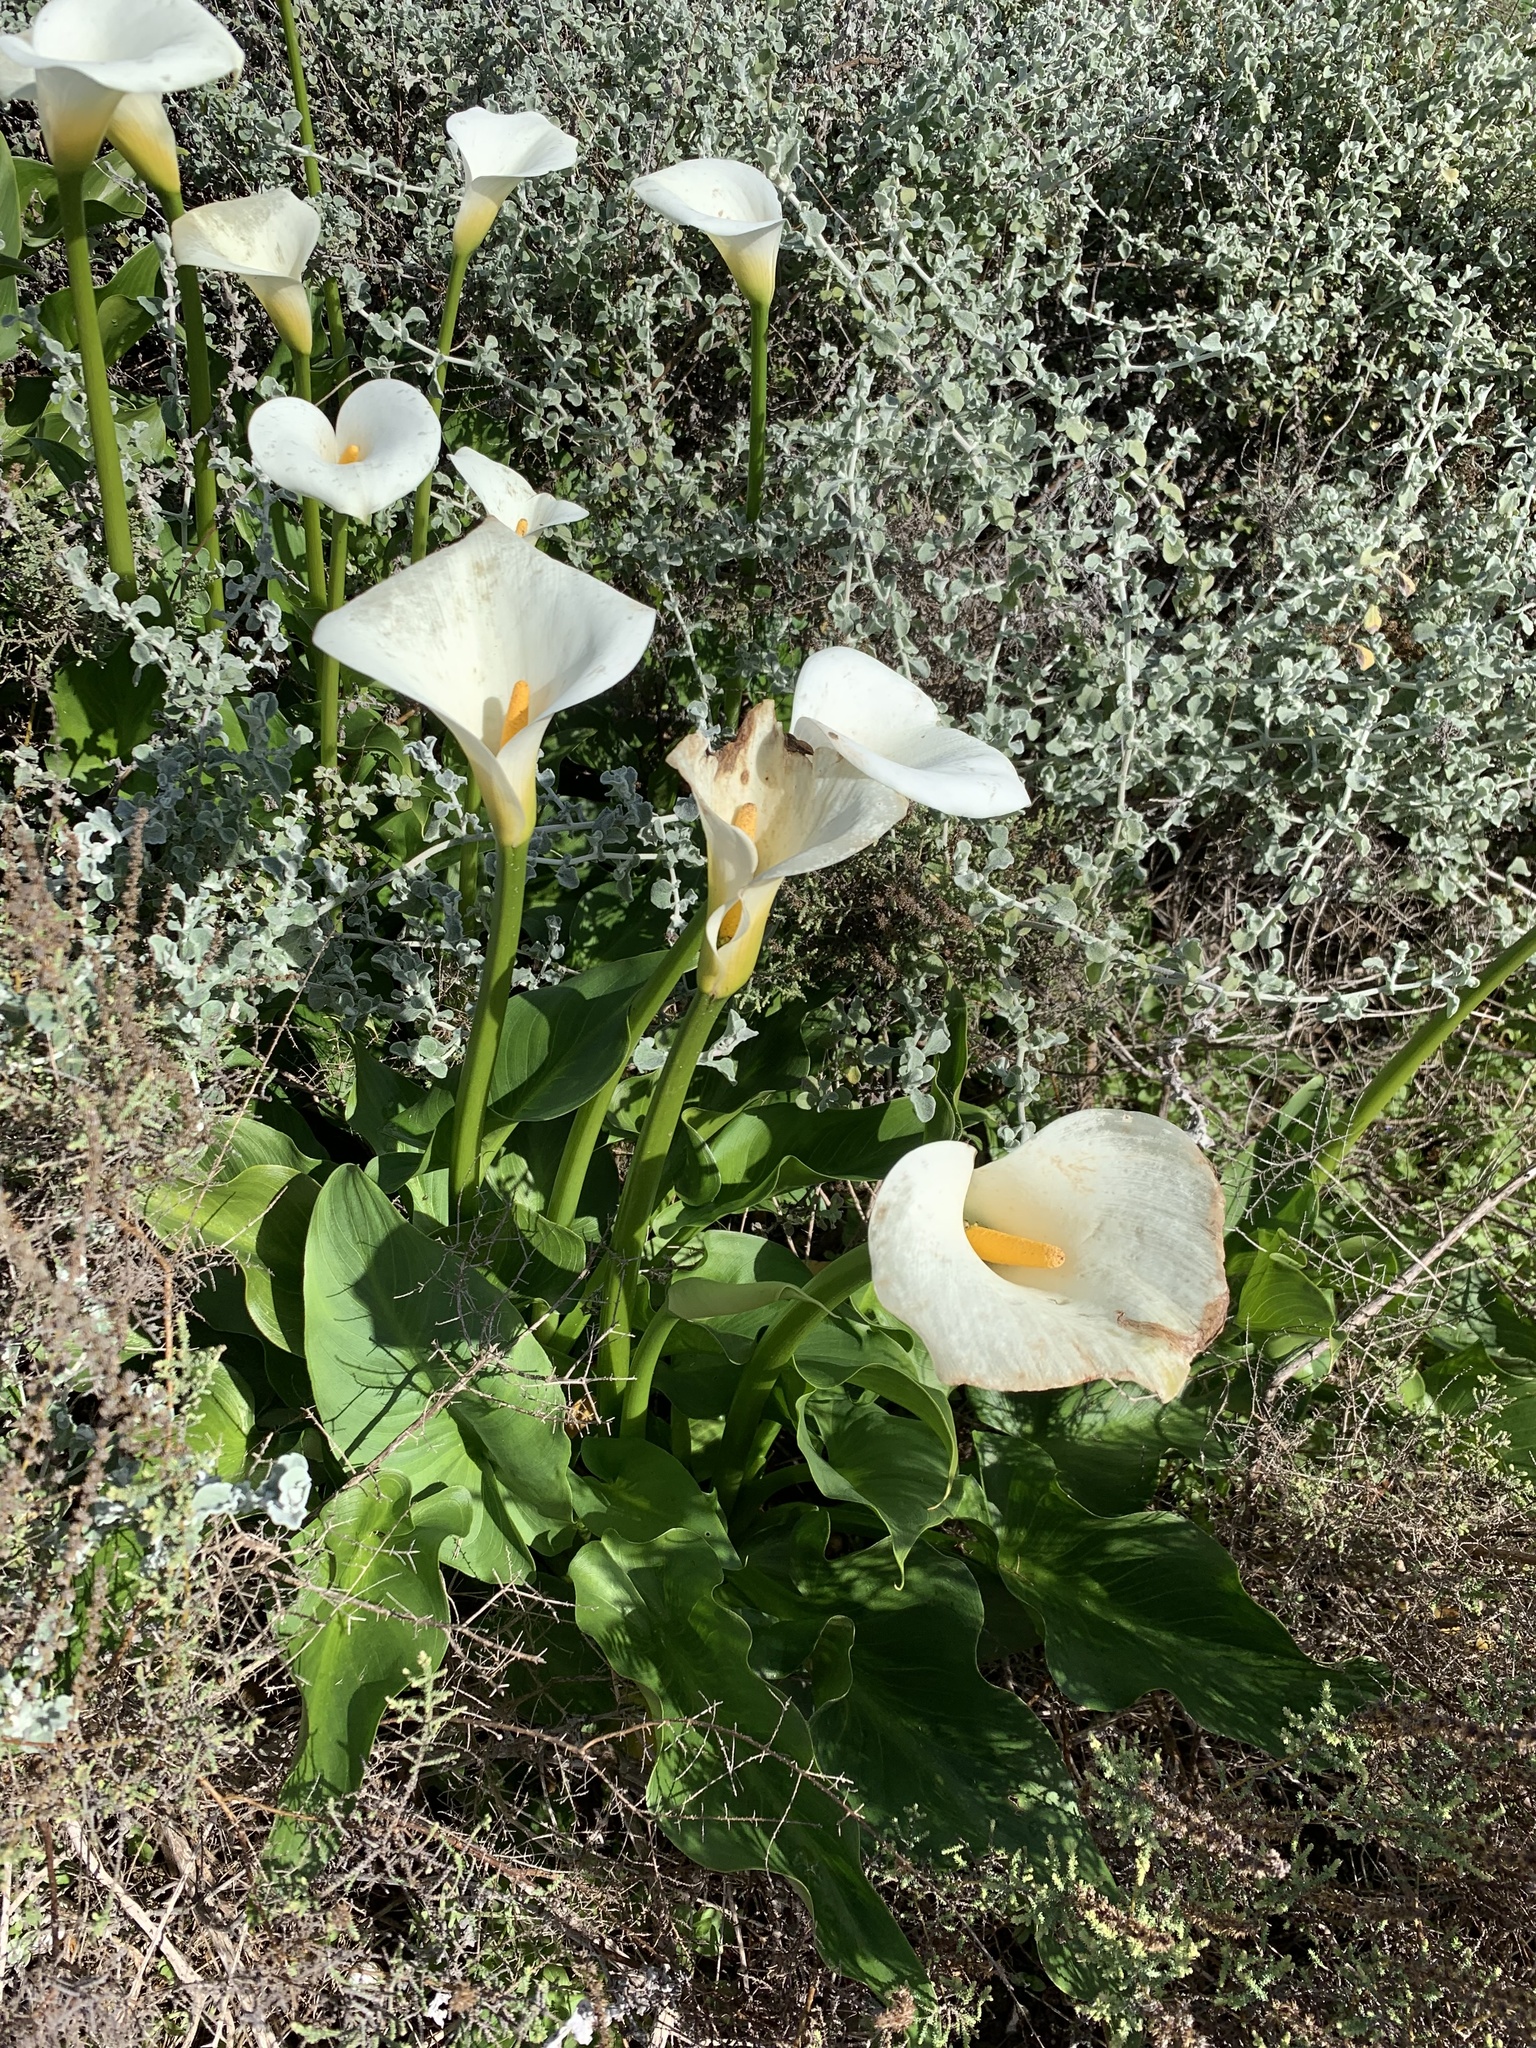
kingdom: Plantae
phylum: Tracheophyta
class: Liliopsida
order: Alismatales
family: Araceae
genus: Zantedeschia
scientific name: Zantedeschia aethiopica
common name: Altar-lily
